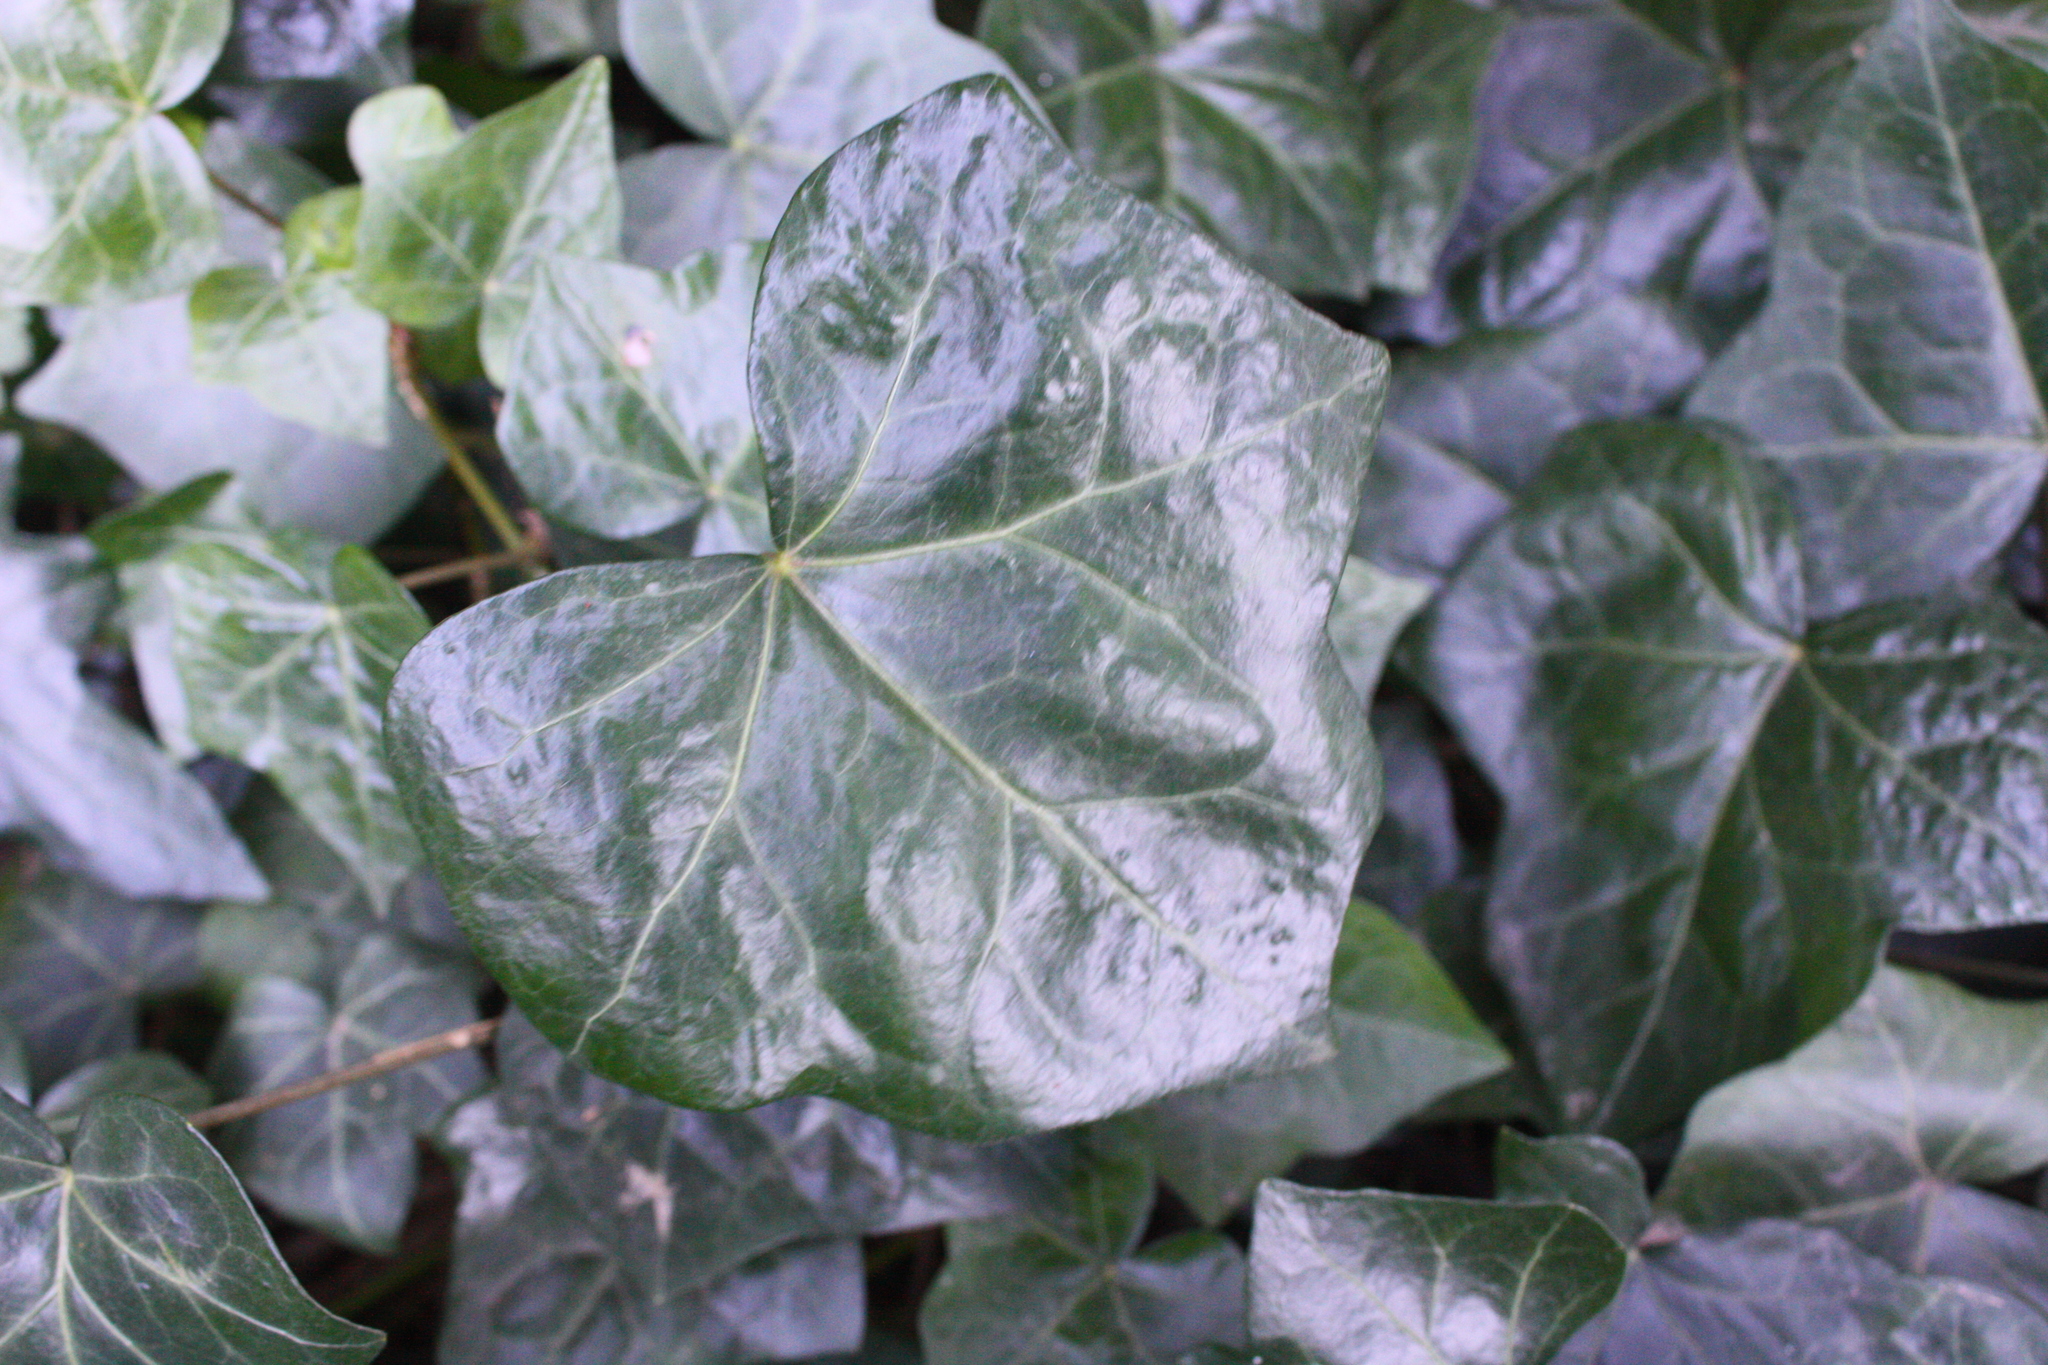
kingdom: Plantae
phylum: Tracheophyta
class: Magnoliopsida
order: Apiales
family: Araliaceae
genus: Hedera
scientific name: Hedera helix
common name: Ivy
